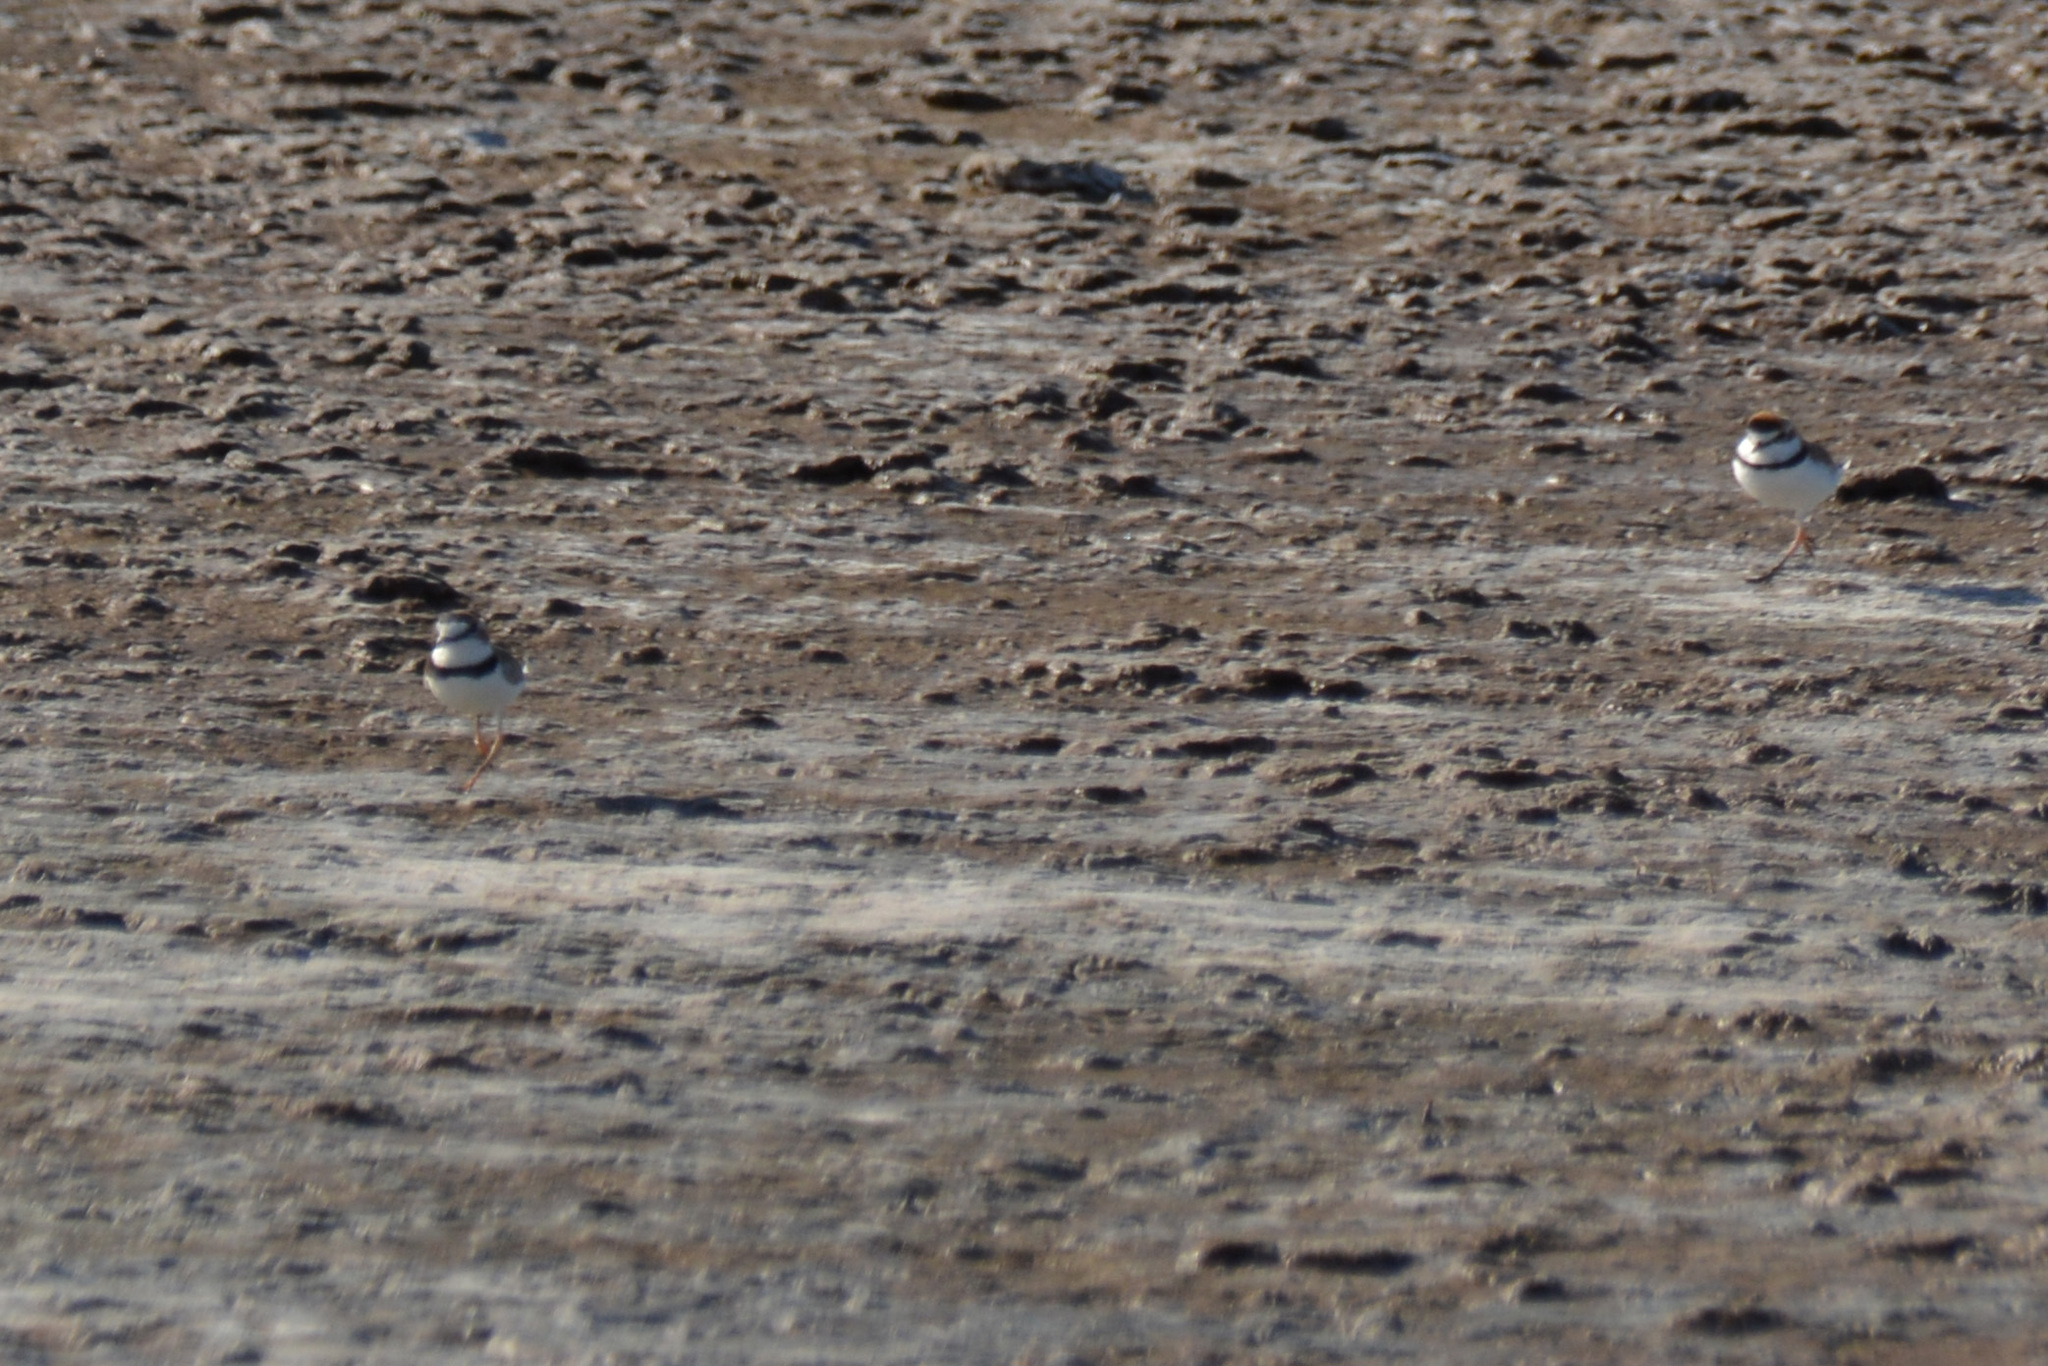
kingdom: Animalia
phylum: Chordata
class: Aves
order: Charadriiformes
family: Charadriidae
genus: Anarhynchus
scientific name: Anarhynchus
